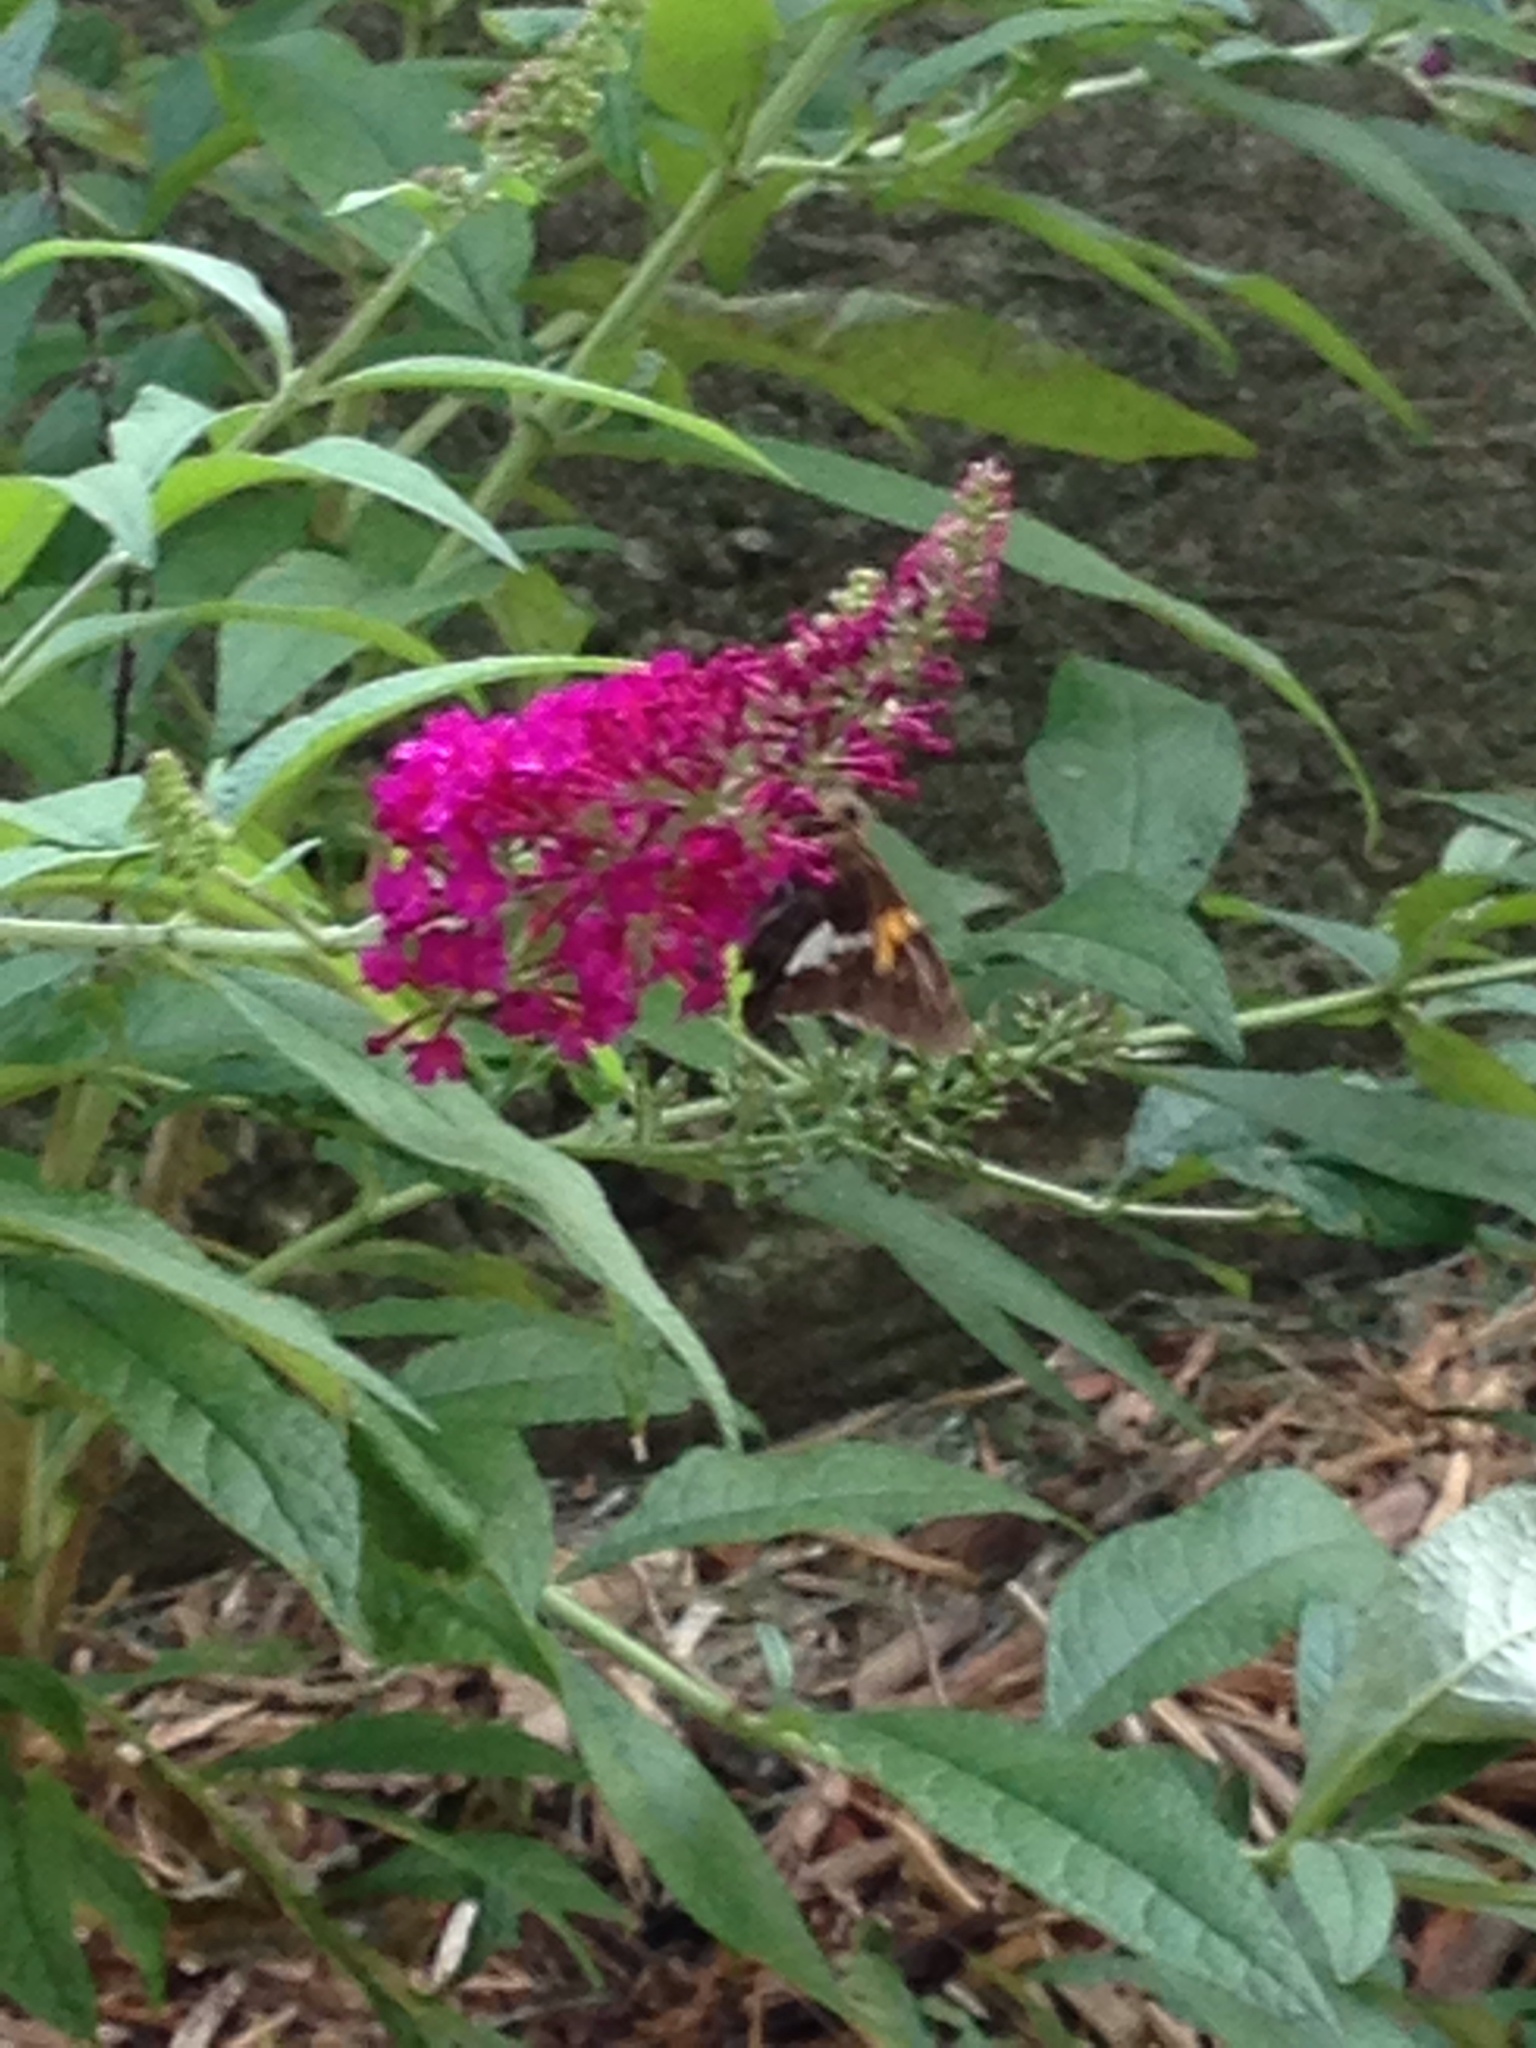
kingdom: Animalia
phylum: Arthropoda
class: Insecta
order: Lepidoptera
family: Hesperiidae
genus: Epargyreus
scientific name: Epargyreus clarus
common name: Silver-spotted skipper
